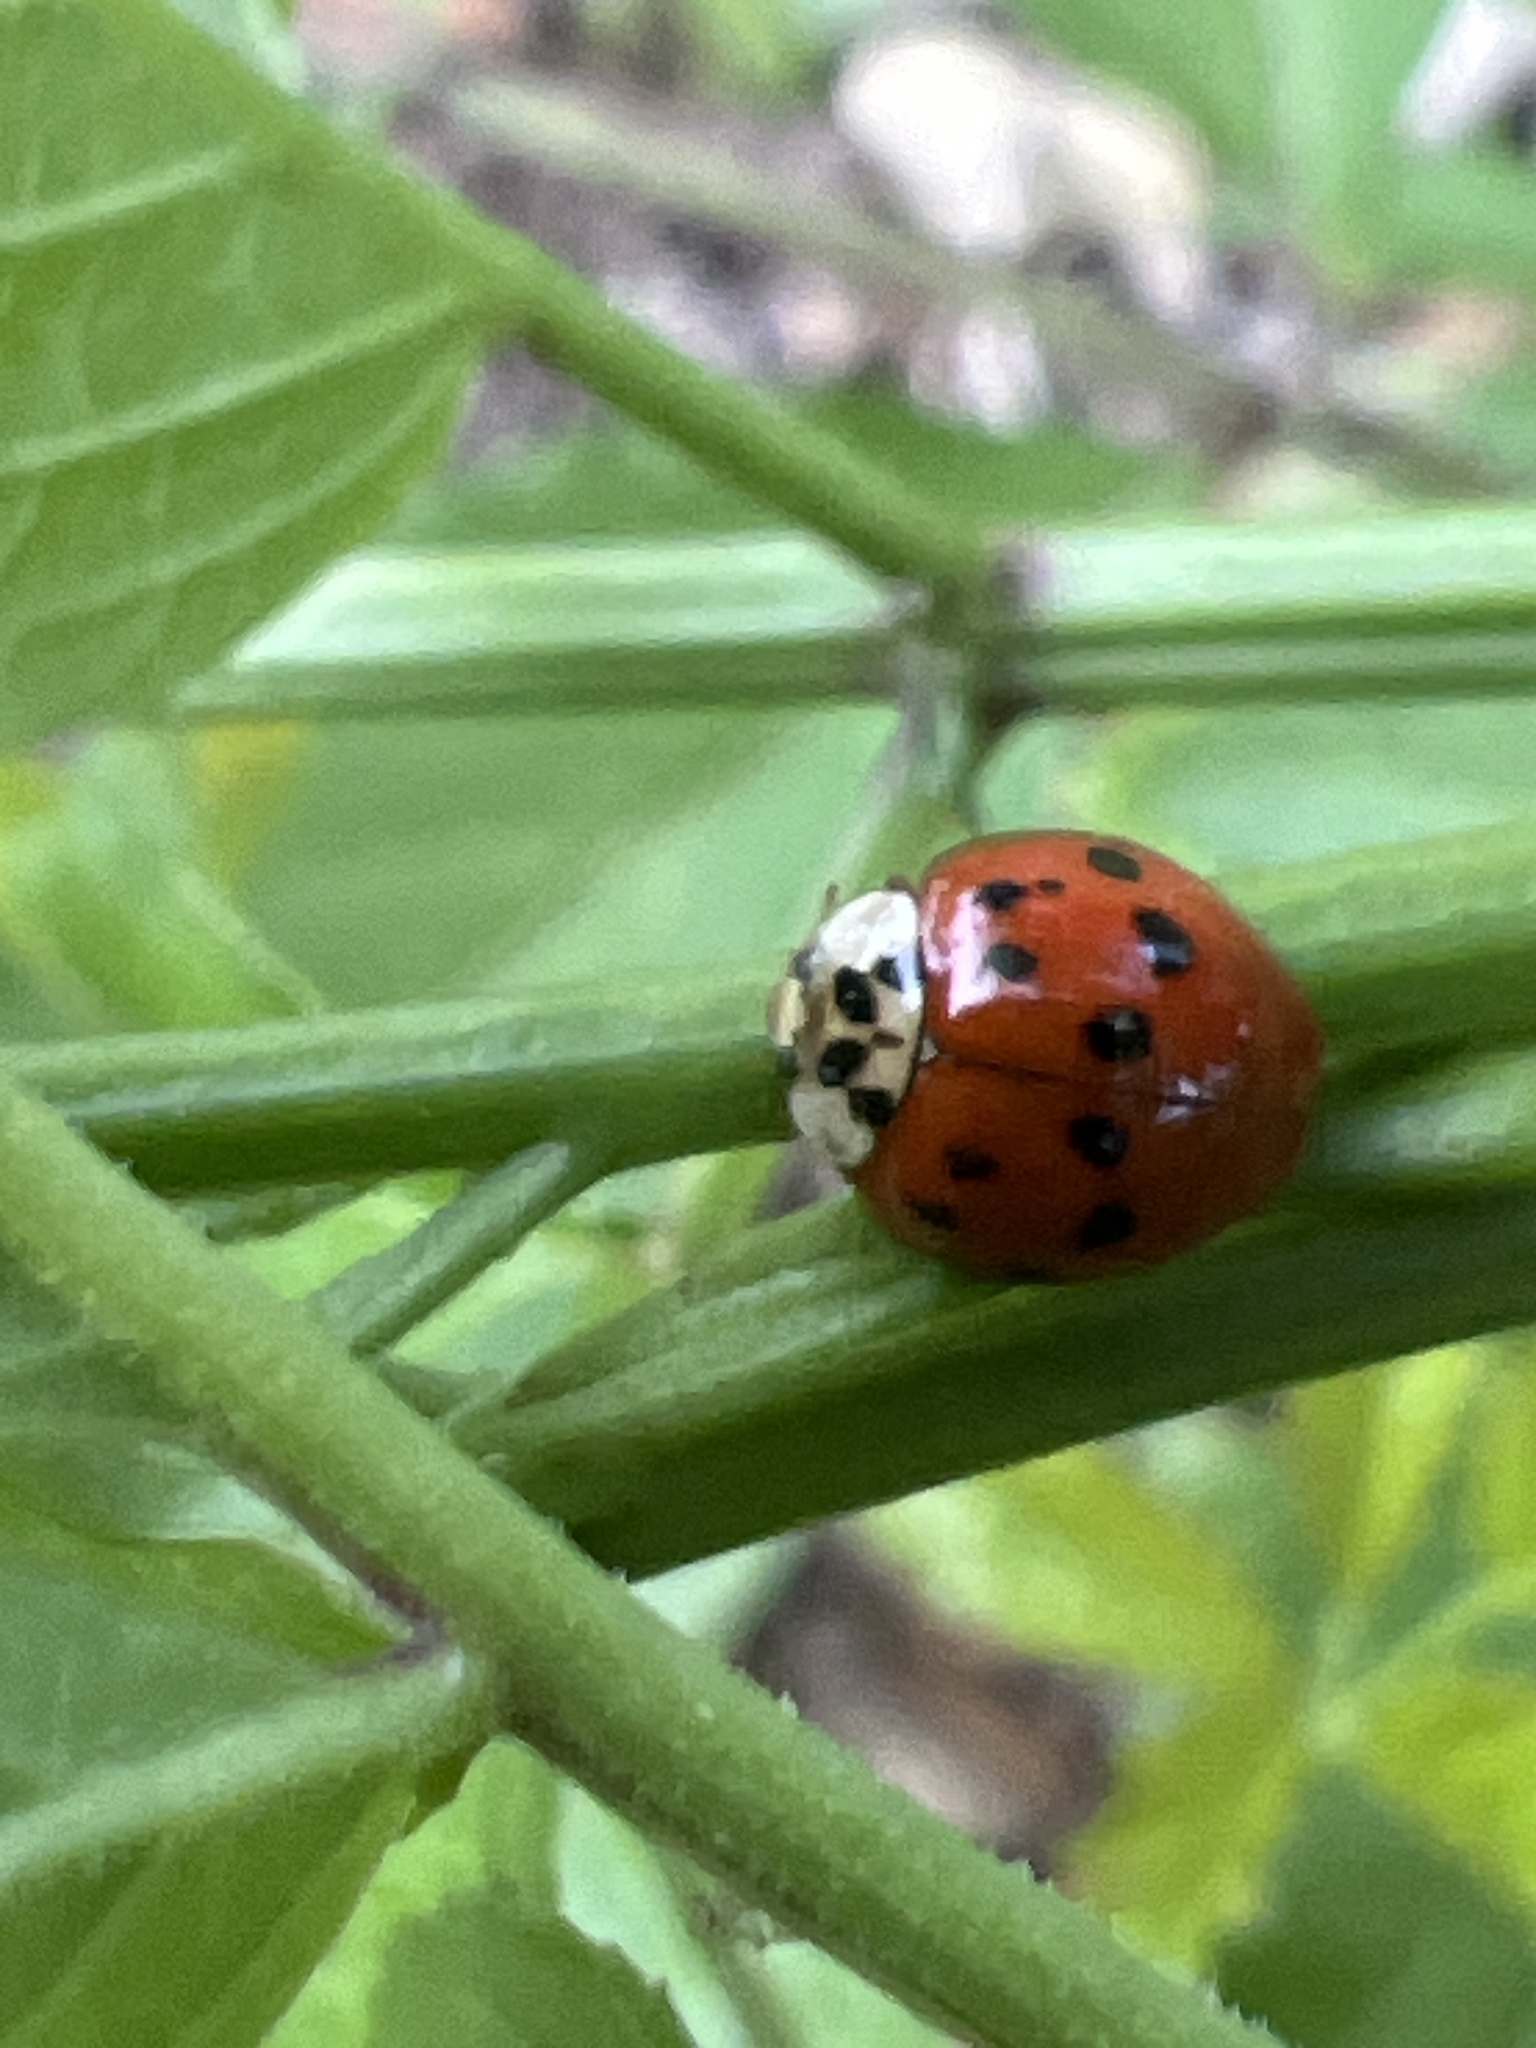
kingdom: Animalia
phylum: Arthropoda
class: Insecta
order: Coleoptera
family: Coccinellidae
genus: Harmonia
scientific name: Harmonia axyridis
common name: Harlequin ladybird
